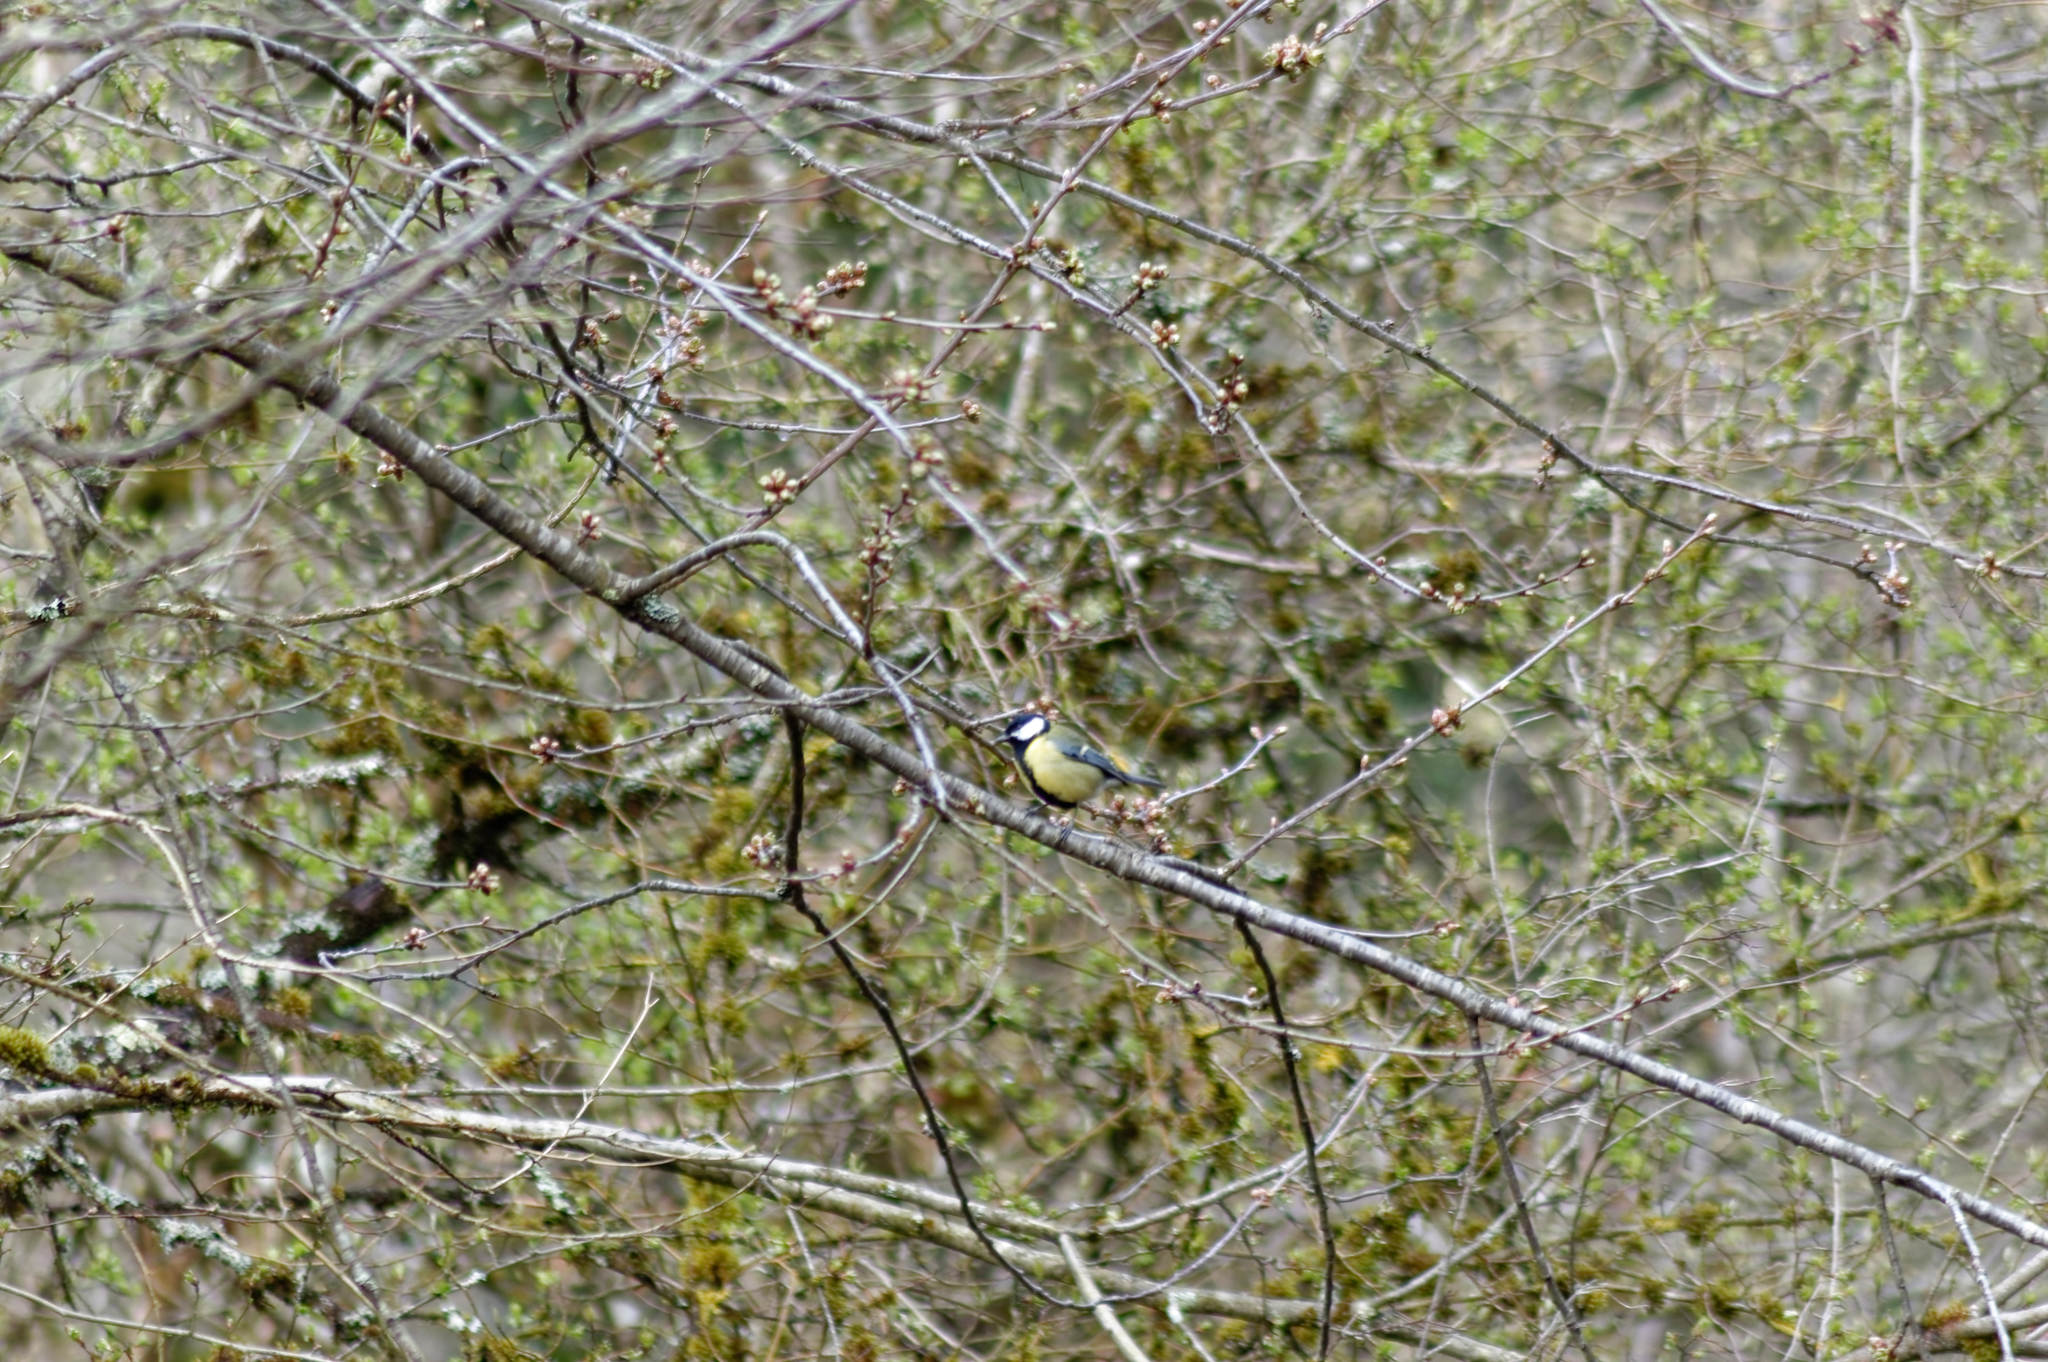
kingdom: Animalia
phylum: Chordata
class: Aves
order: Passeriformes
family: Paridae
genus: Parus
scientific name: Parus major
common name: Great tit
